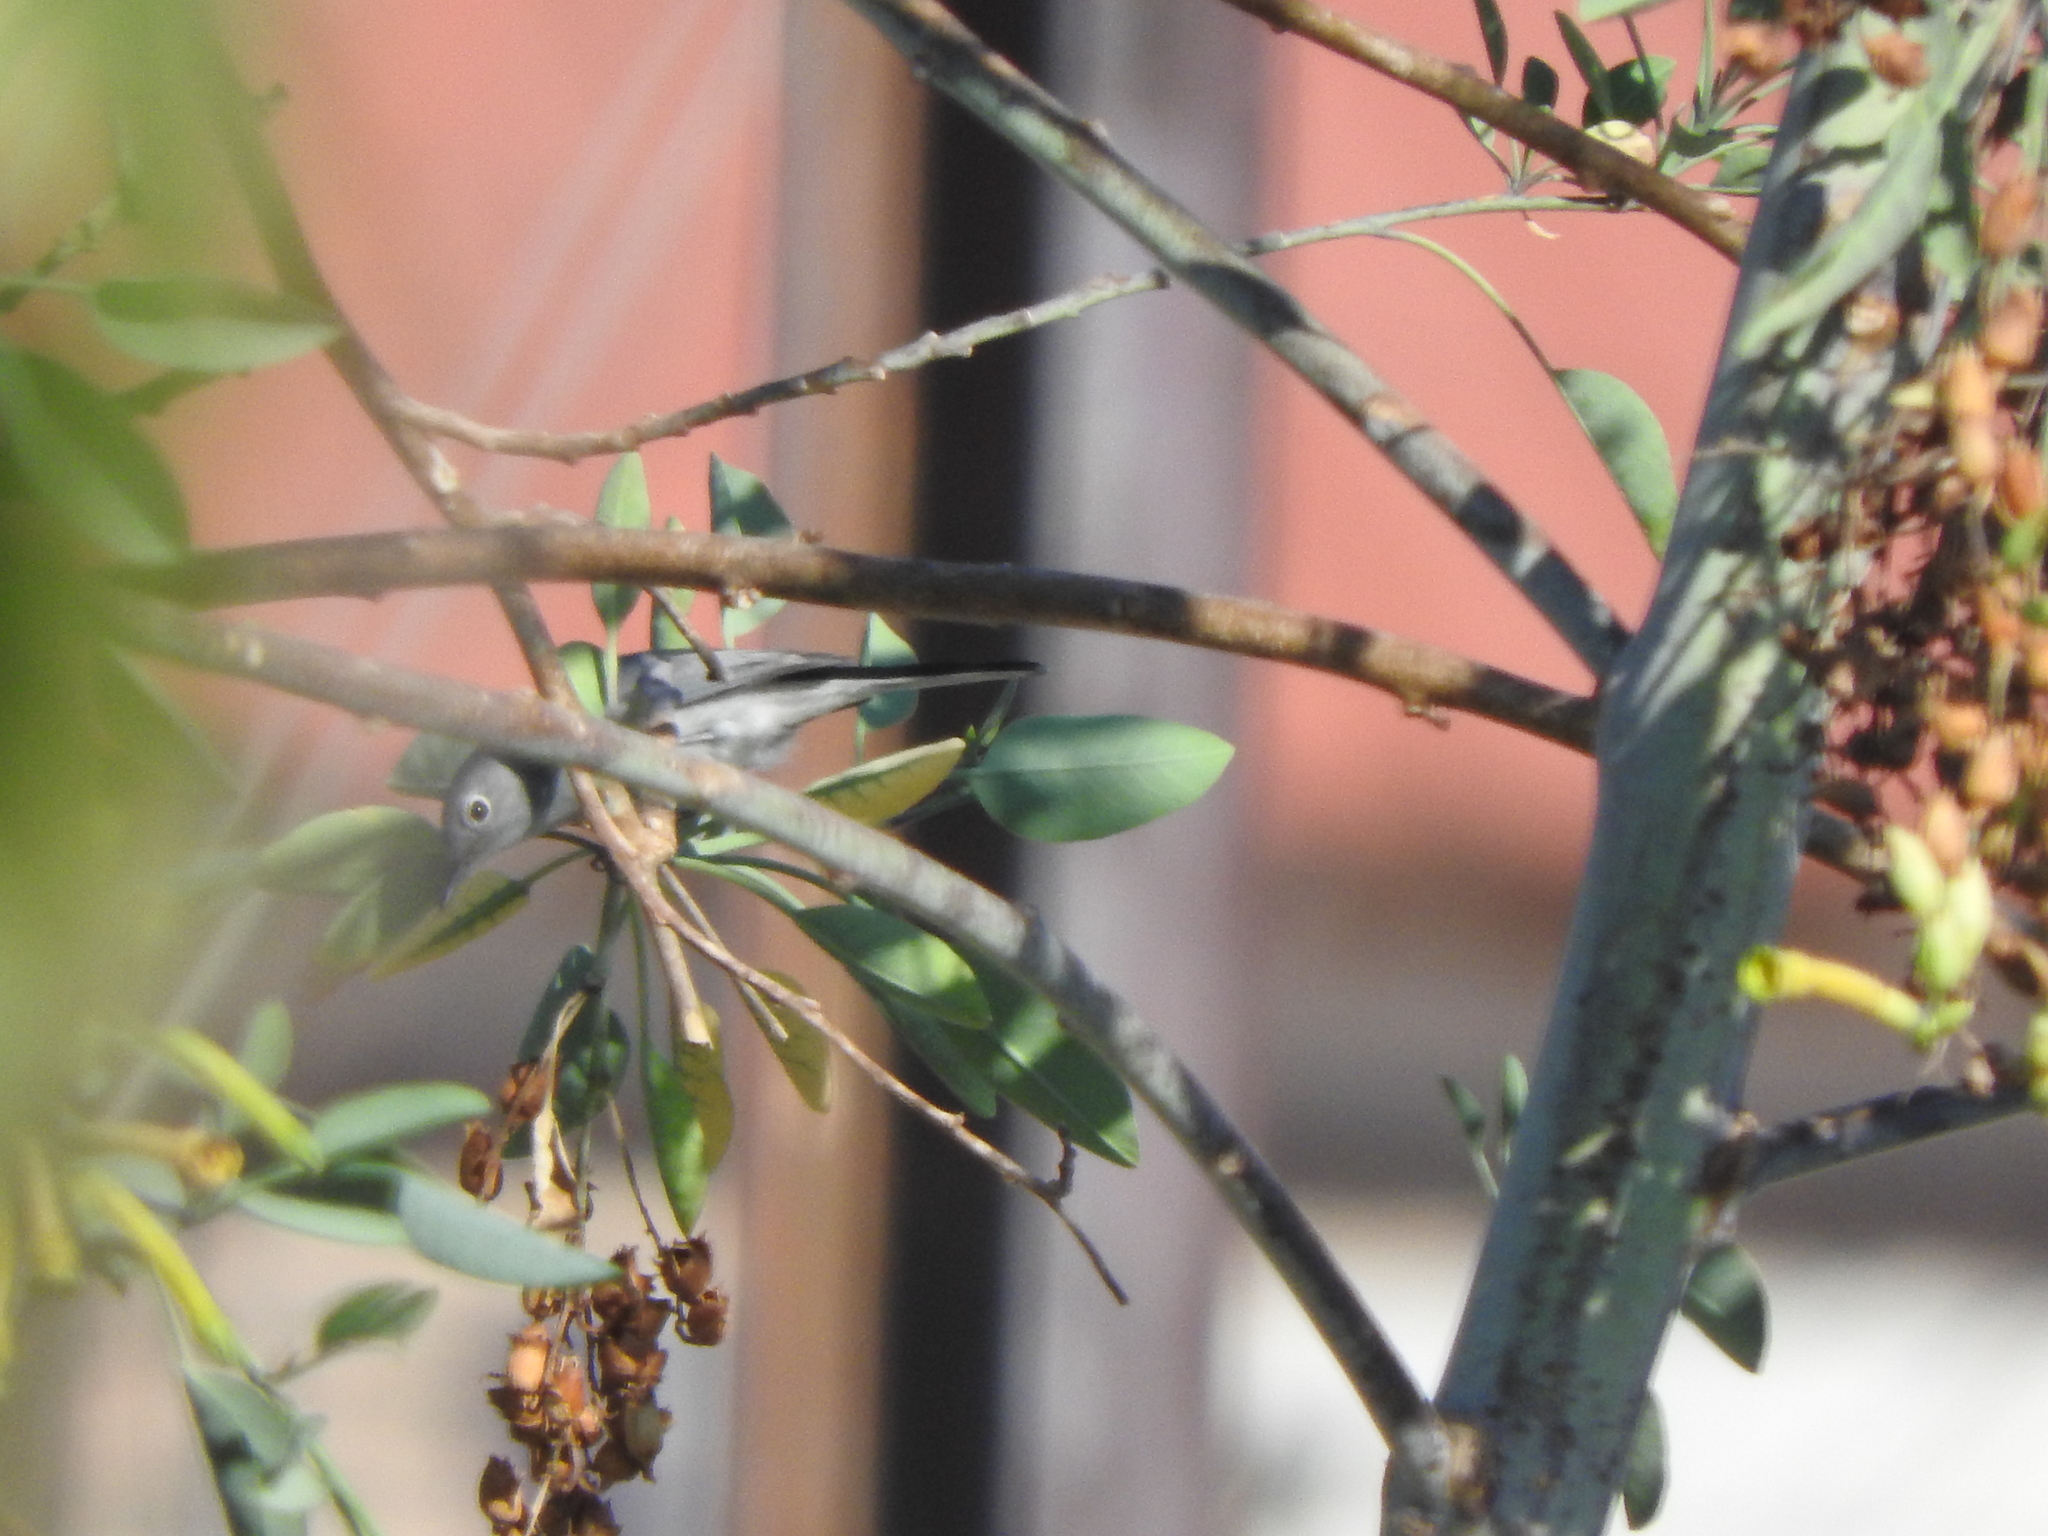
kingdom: Animalia
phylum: Chordata
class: Aves
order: Passeriformes
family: Polioptilidae
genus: Polioptila
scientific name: Polioptila caerulea
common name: Blue-gray gnatcatcher
